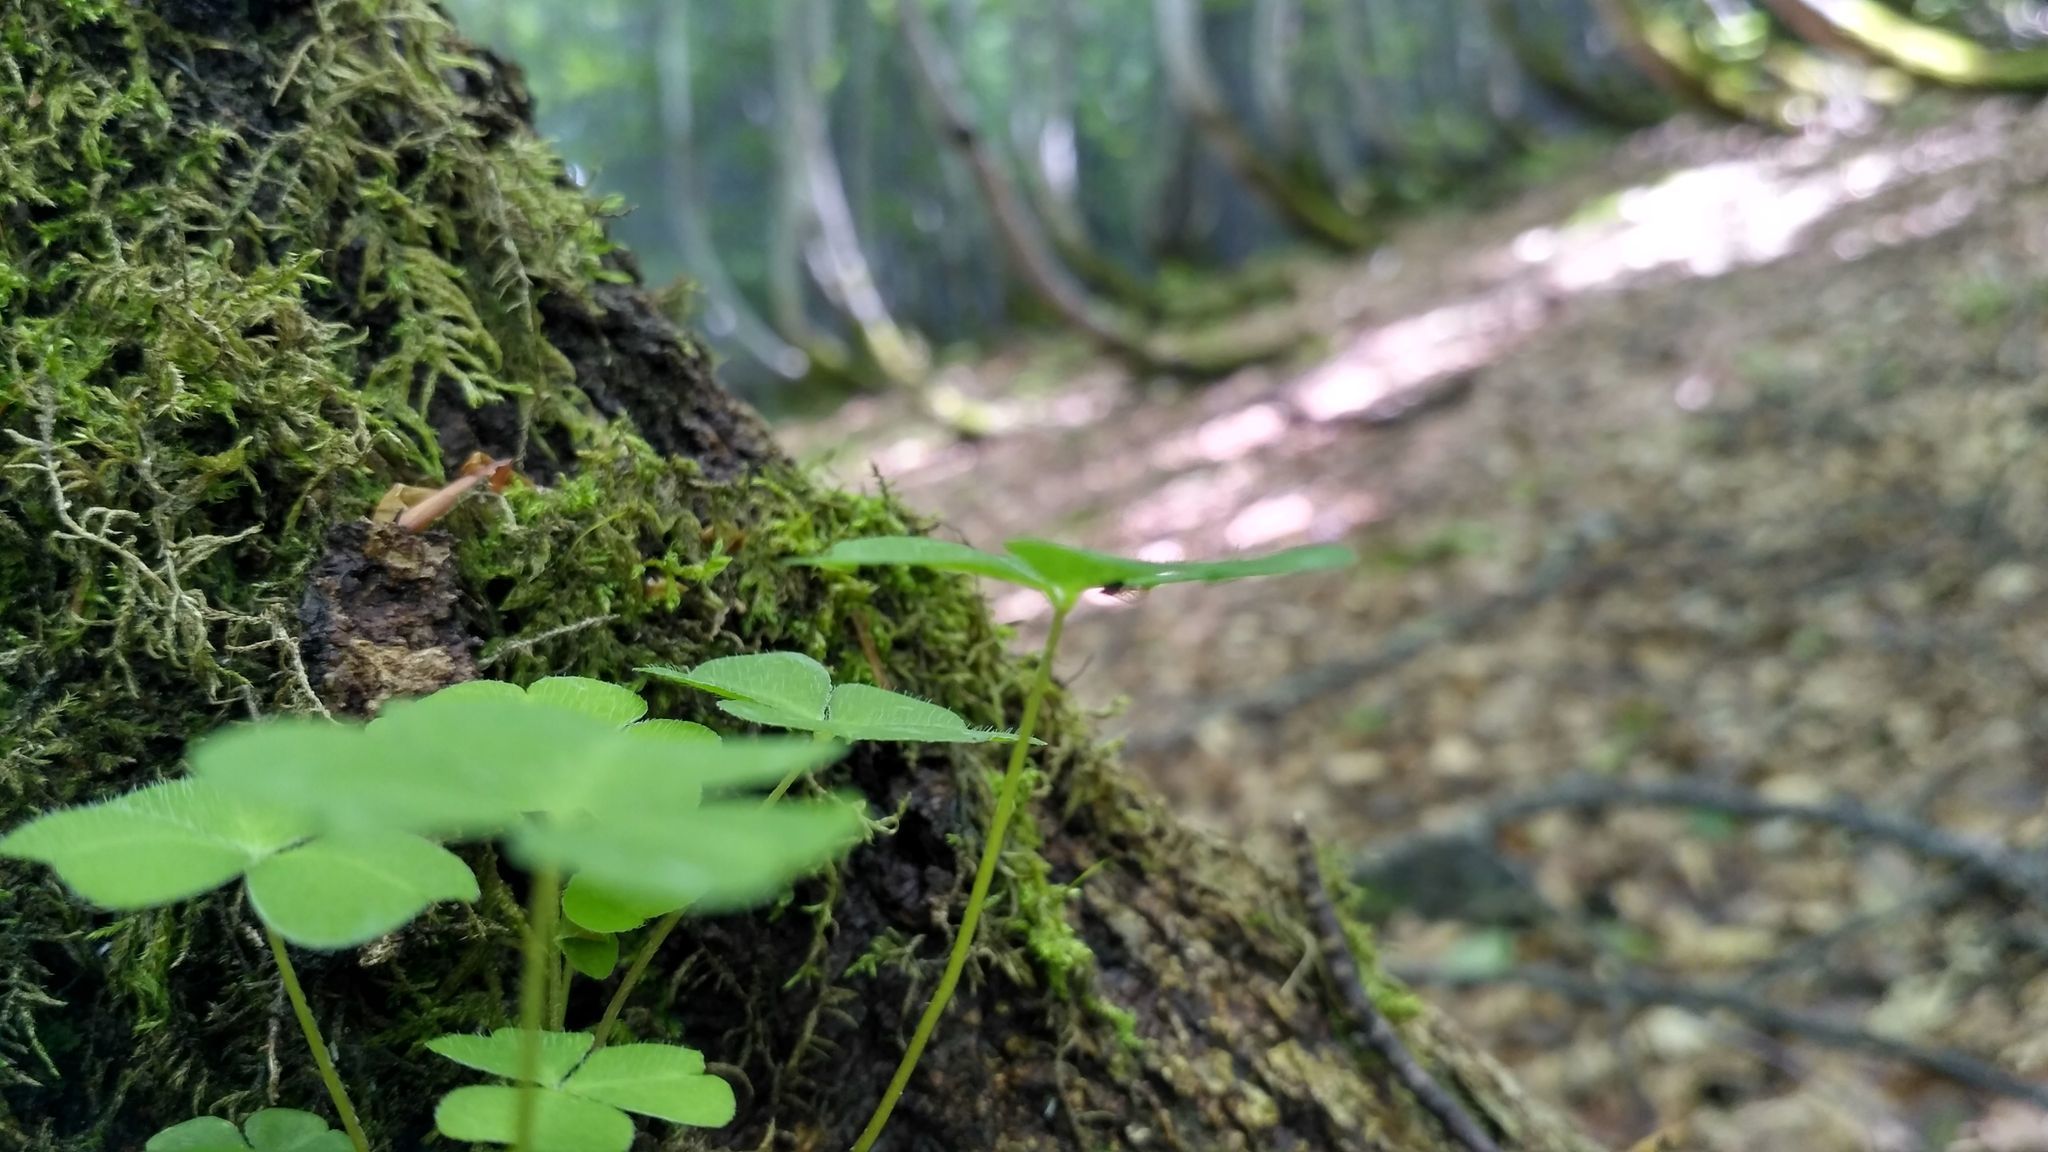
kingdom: Plantae
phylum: Tracheophyta
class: Magnoliopsida
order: Oxalidales
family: Oxalidaceae
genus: Oxalis
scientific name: Oxalis acetosella
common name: Wood-sorrel
